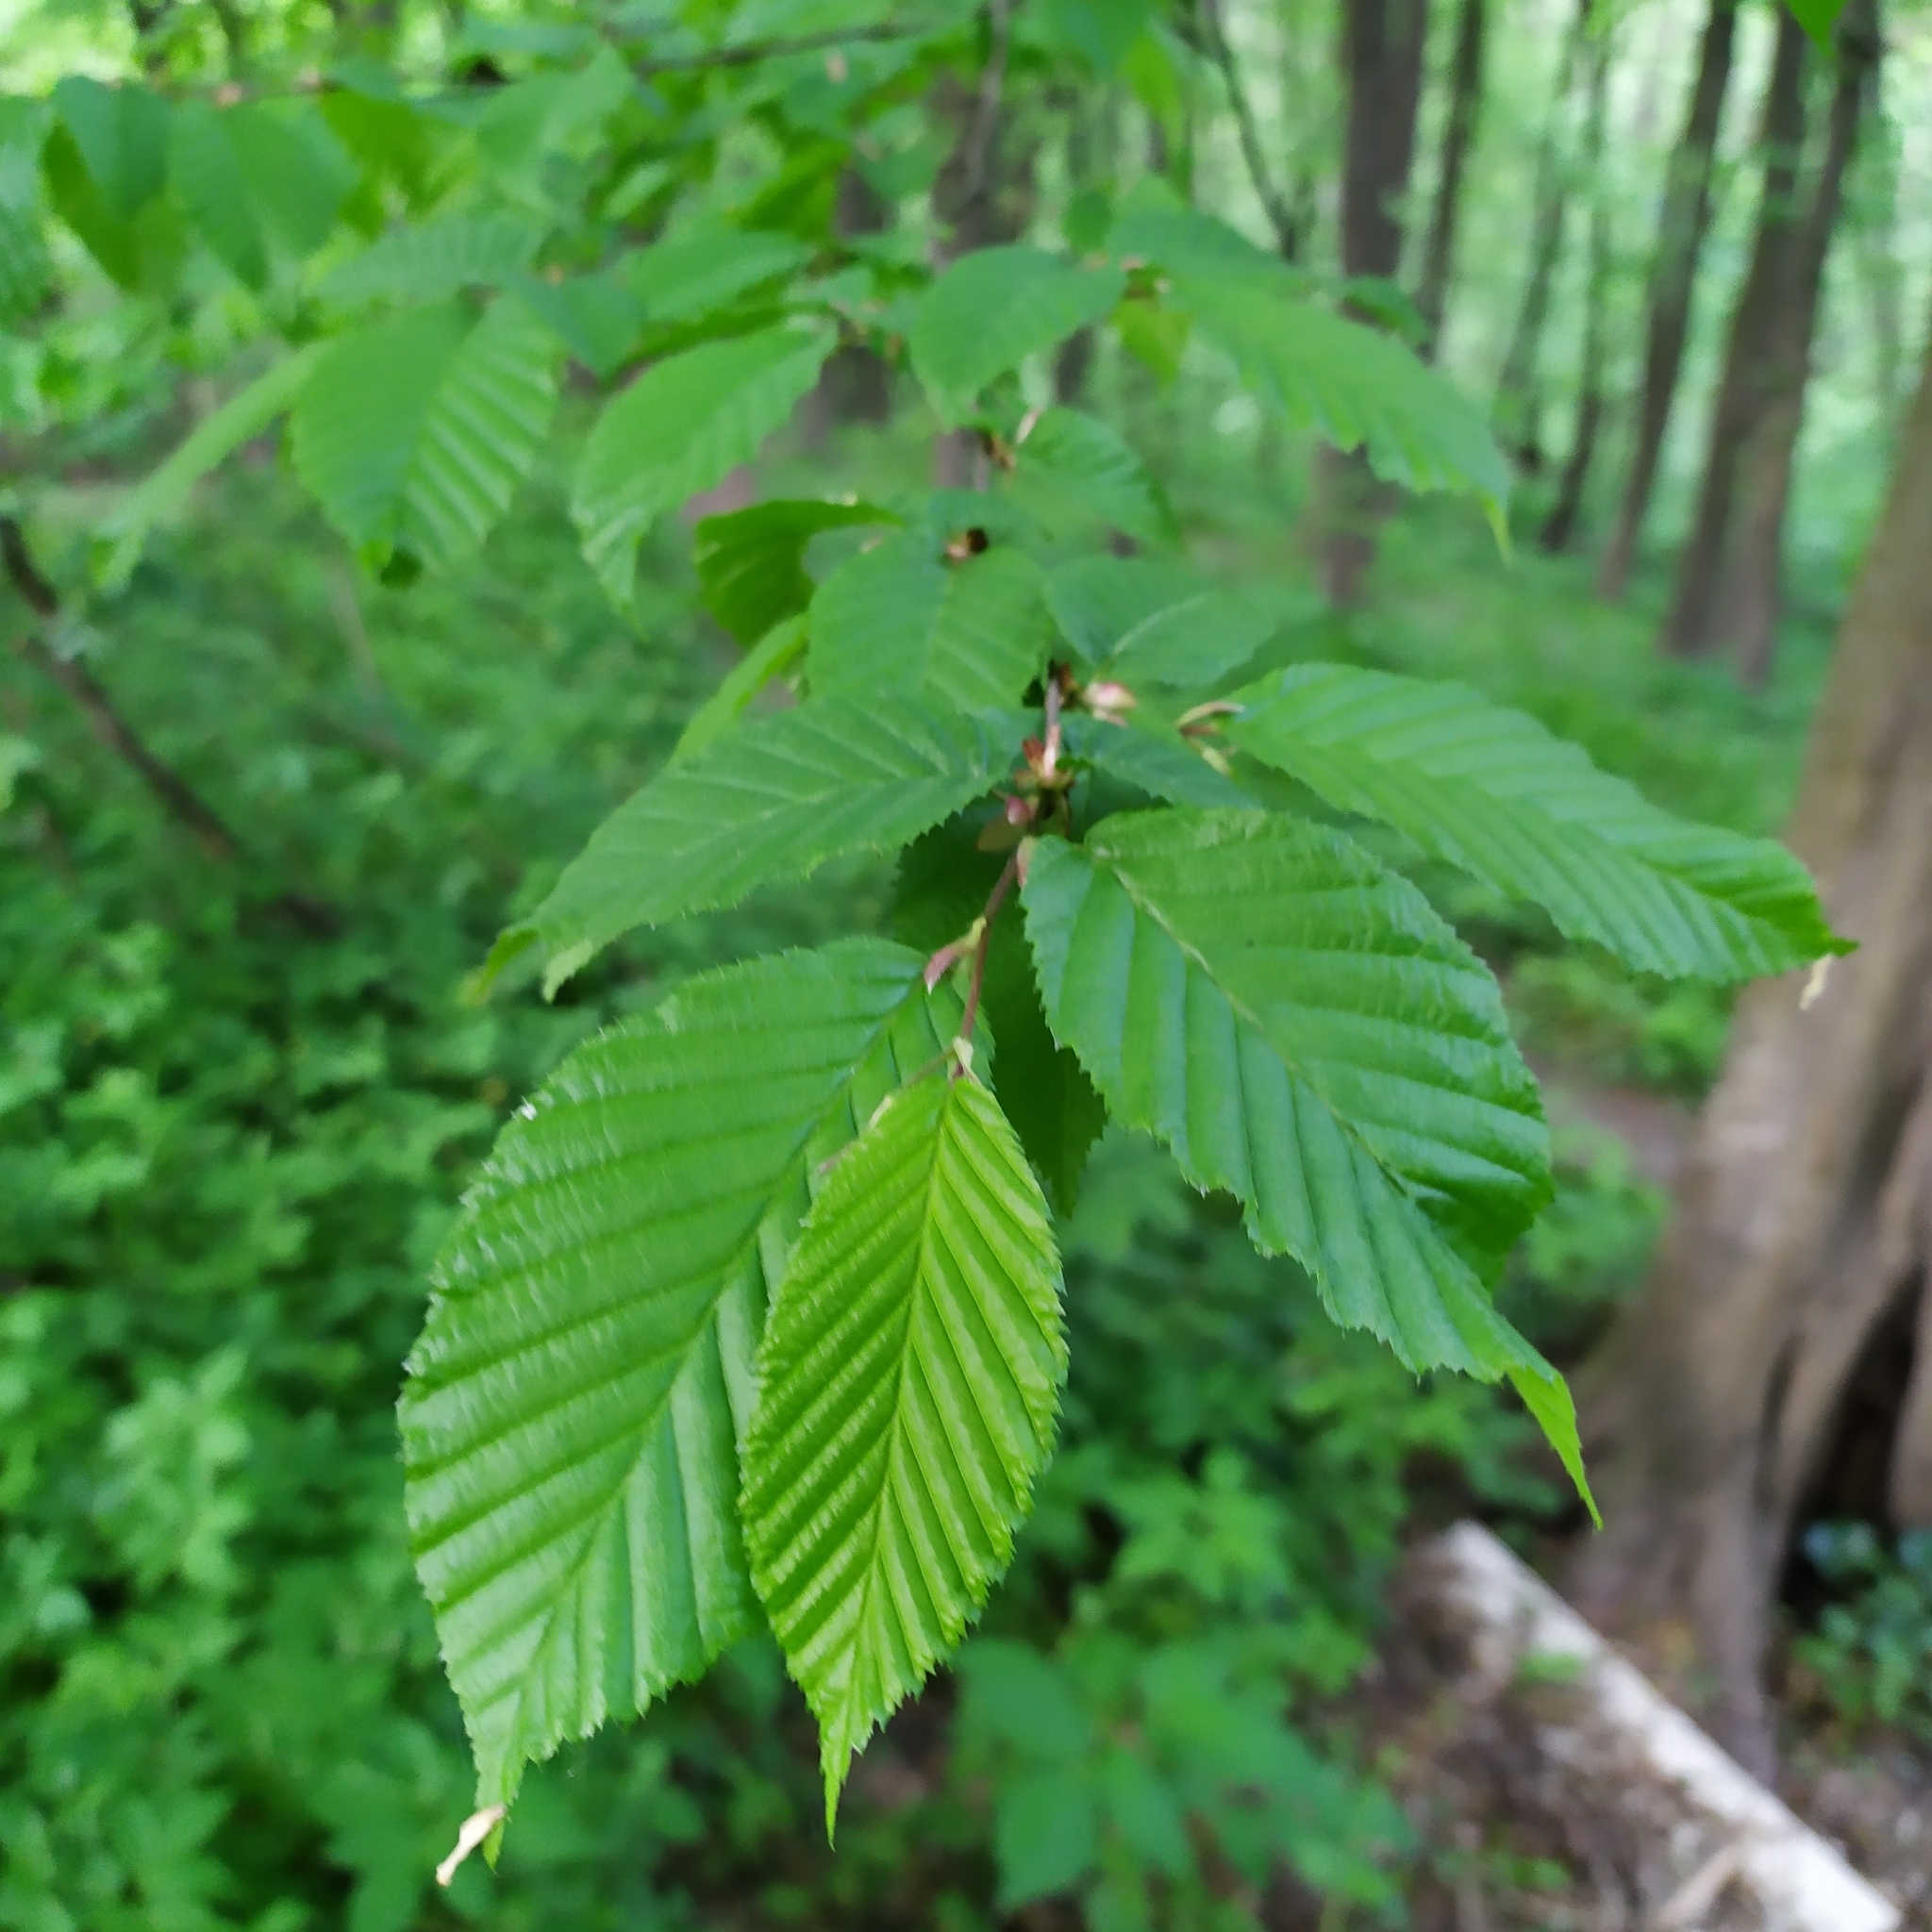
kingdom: Plantae
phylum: Tracheophyta
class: Magnoliopsida
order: Fagales
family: Betulaceae
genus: Carpinus
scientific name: Carpinus betulus
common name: Hornbeam
